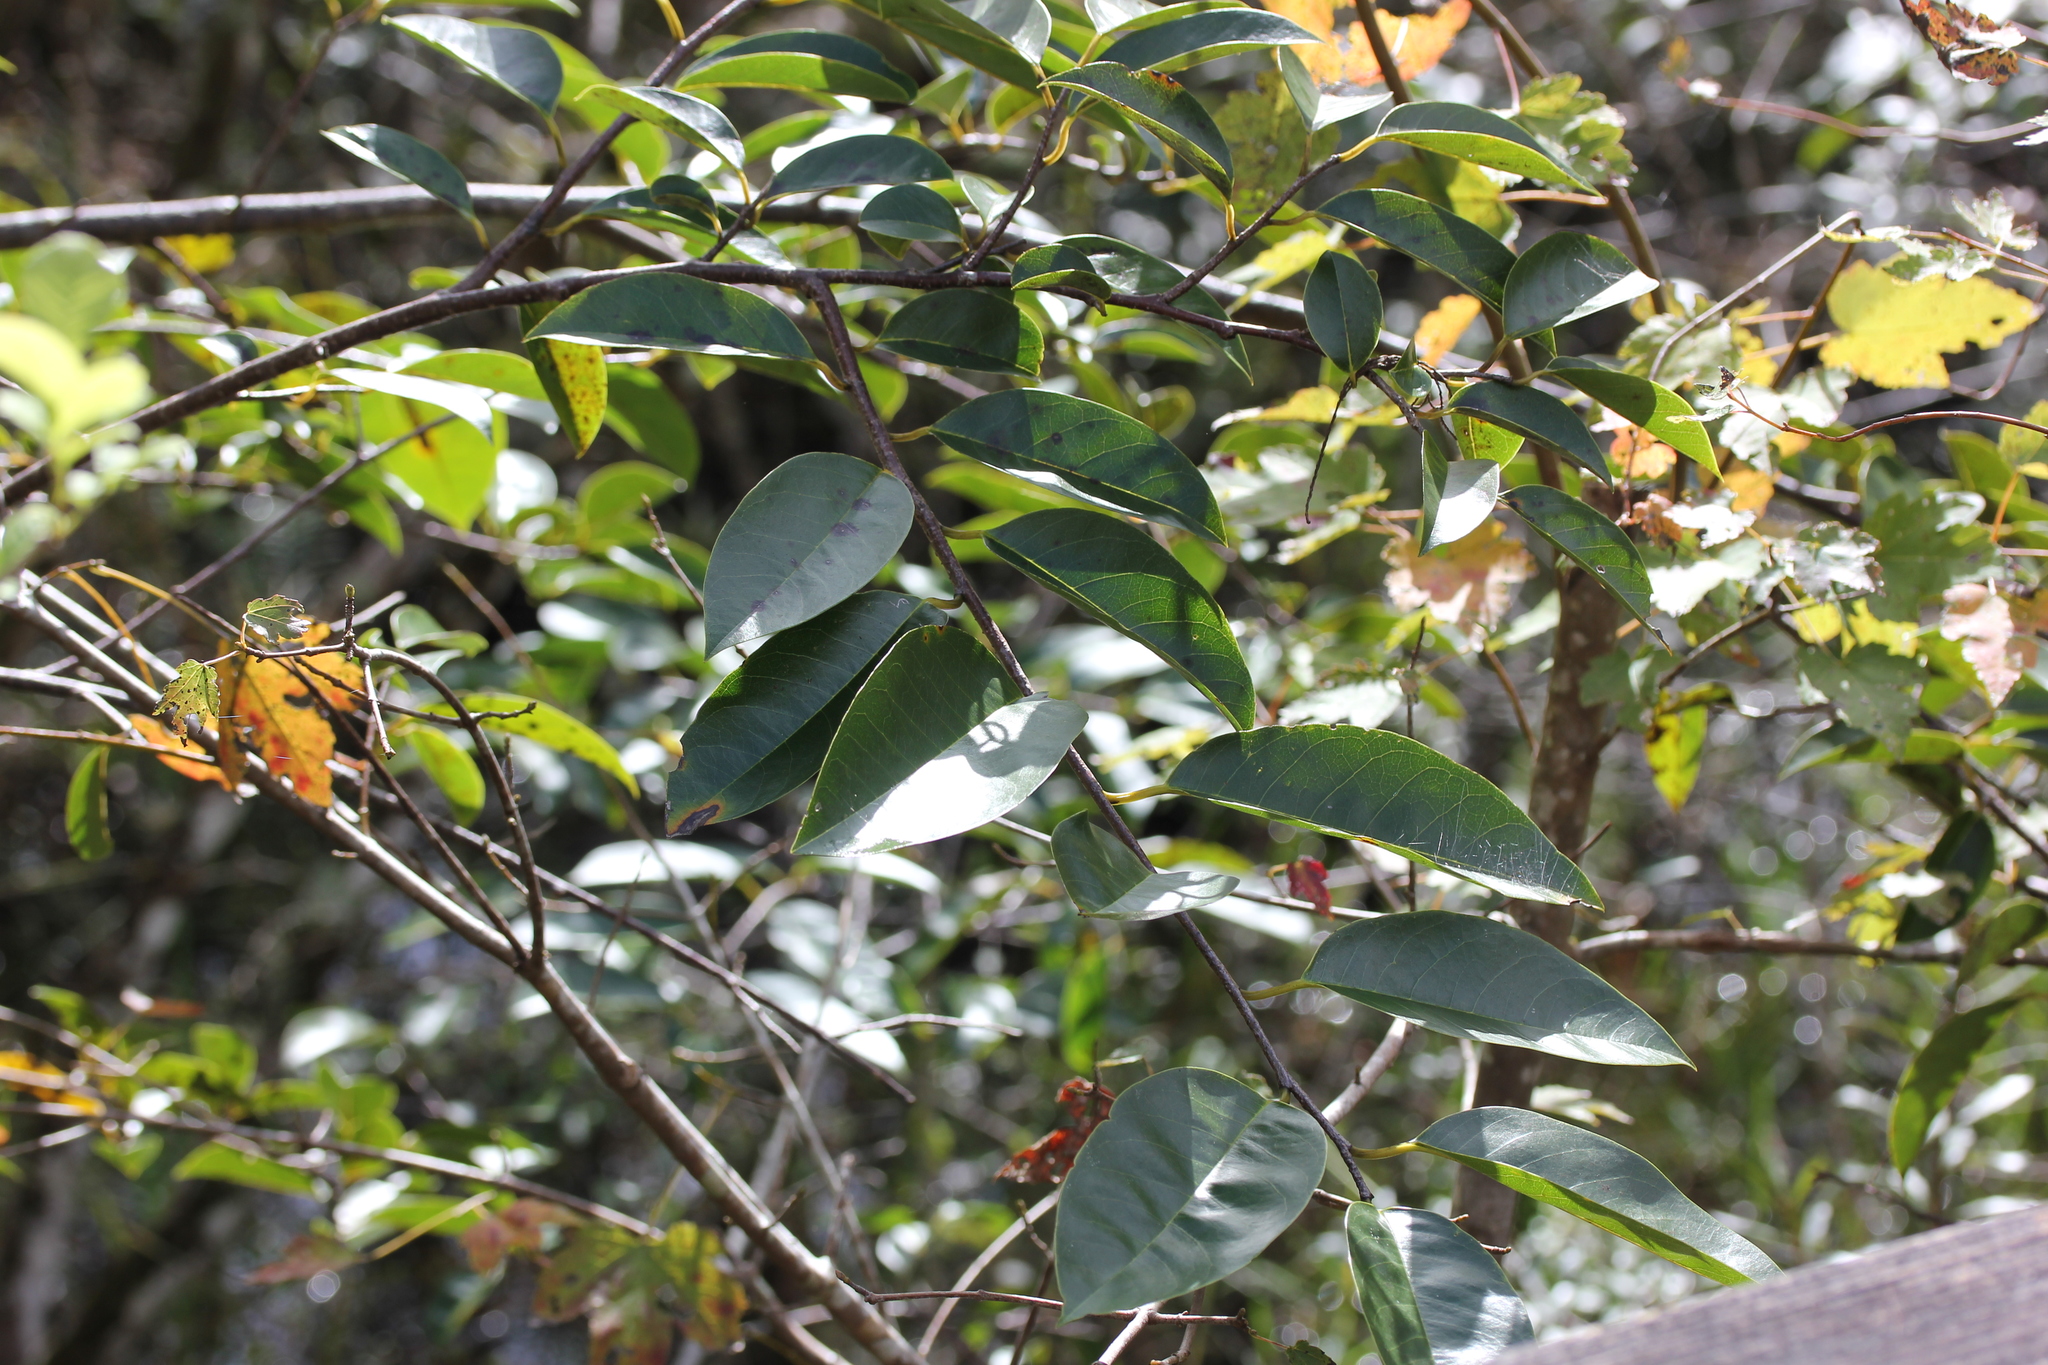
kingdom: Plantae
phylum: Tracheophyta
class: Magnoliopsida
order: Magnoliales
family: Annonaceae
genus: Annona
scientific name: Annona glabra
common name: Monkey apple
